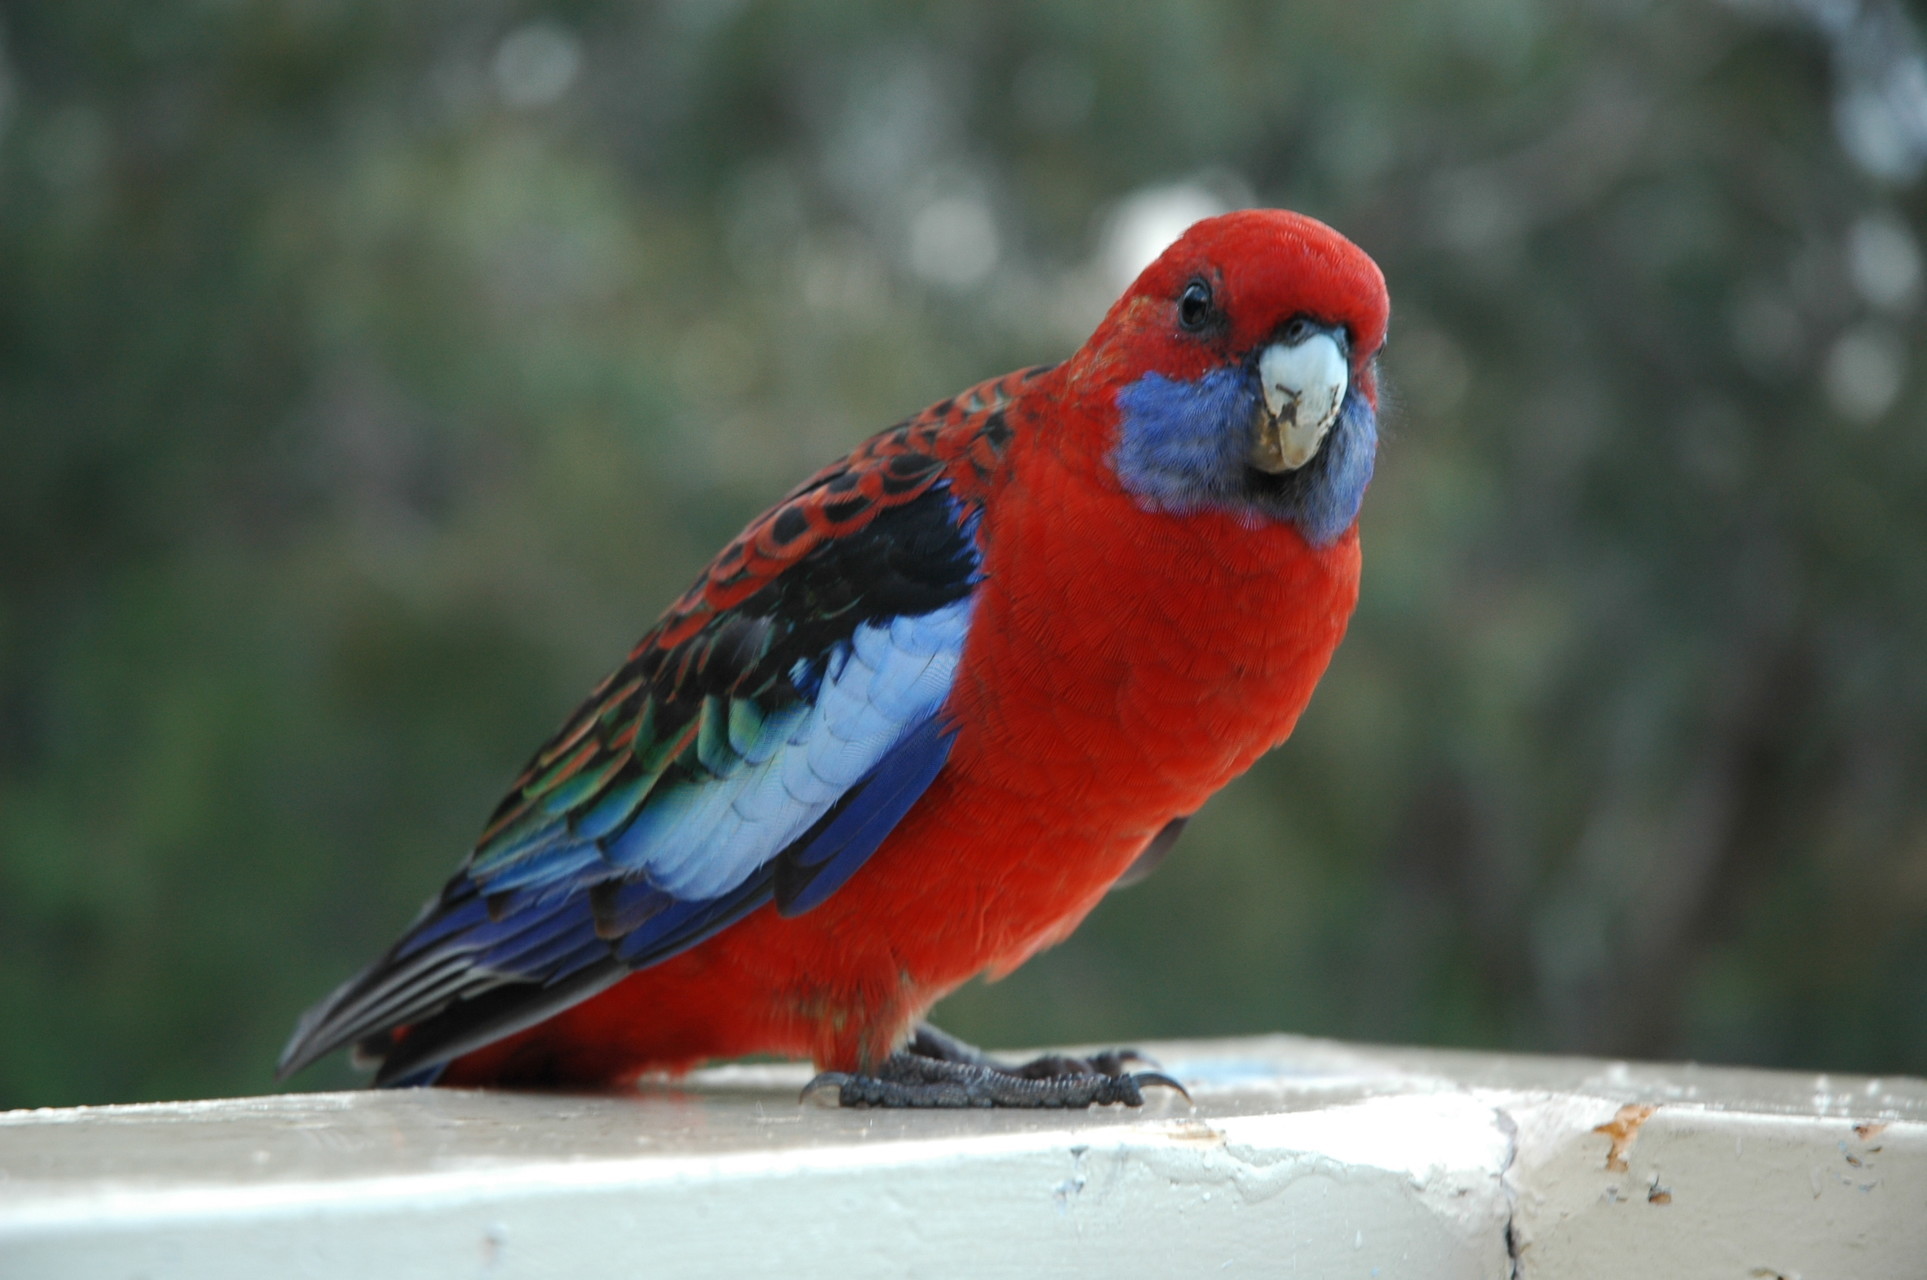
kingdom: Animalia
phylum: Chordata
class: Aves
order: Psittaciformes
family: Psittacidae
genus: Platycercus
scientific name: Platycercus elegans
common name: Crimson rosella
